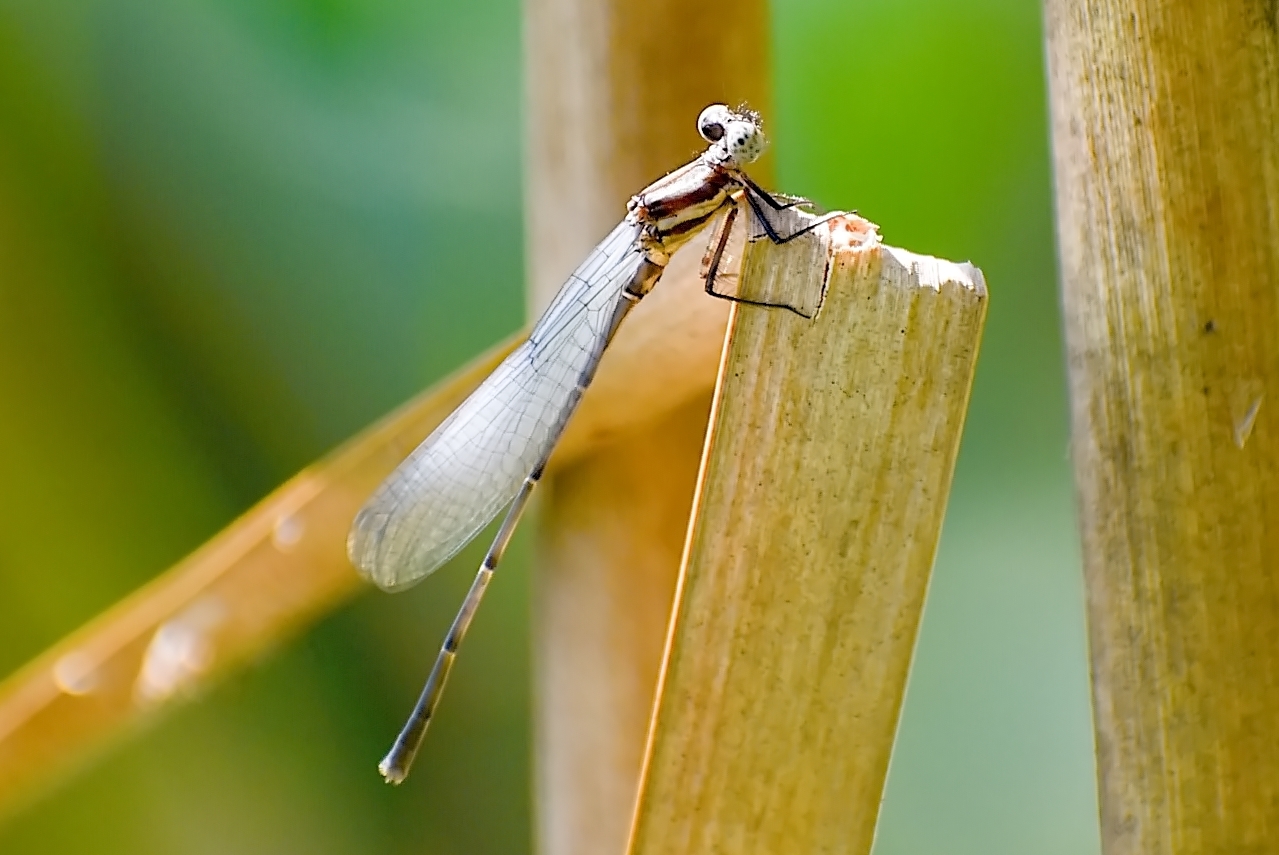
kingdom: Animalia
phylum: Arthropoda
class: Insecta
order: Odonata
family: Platycnemididae
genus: Onychargia
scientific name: Onychargia atrocyana
